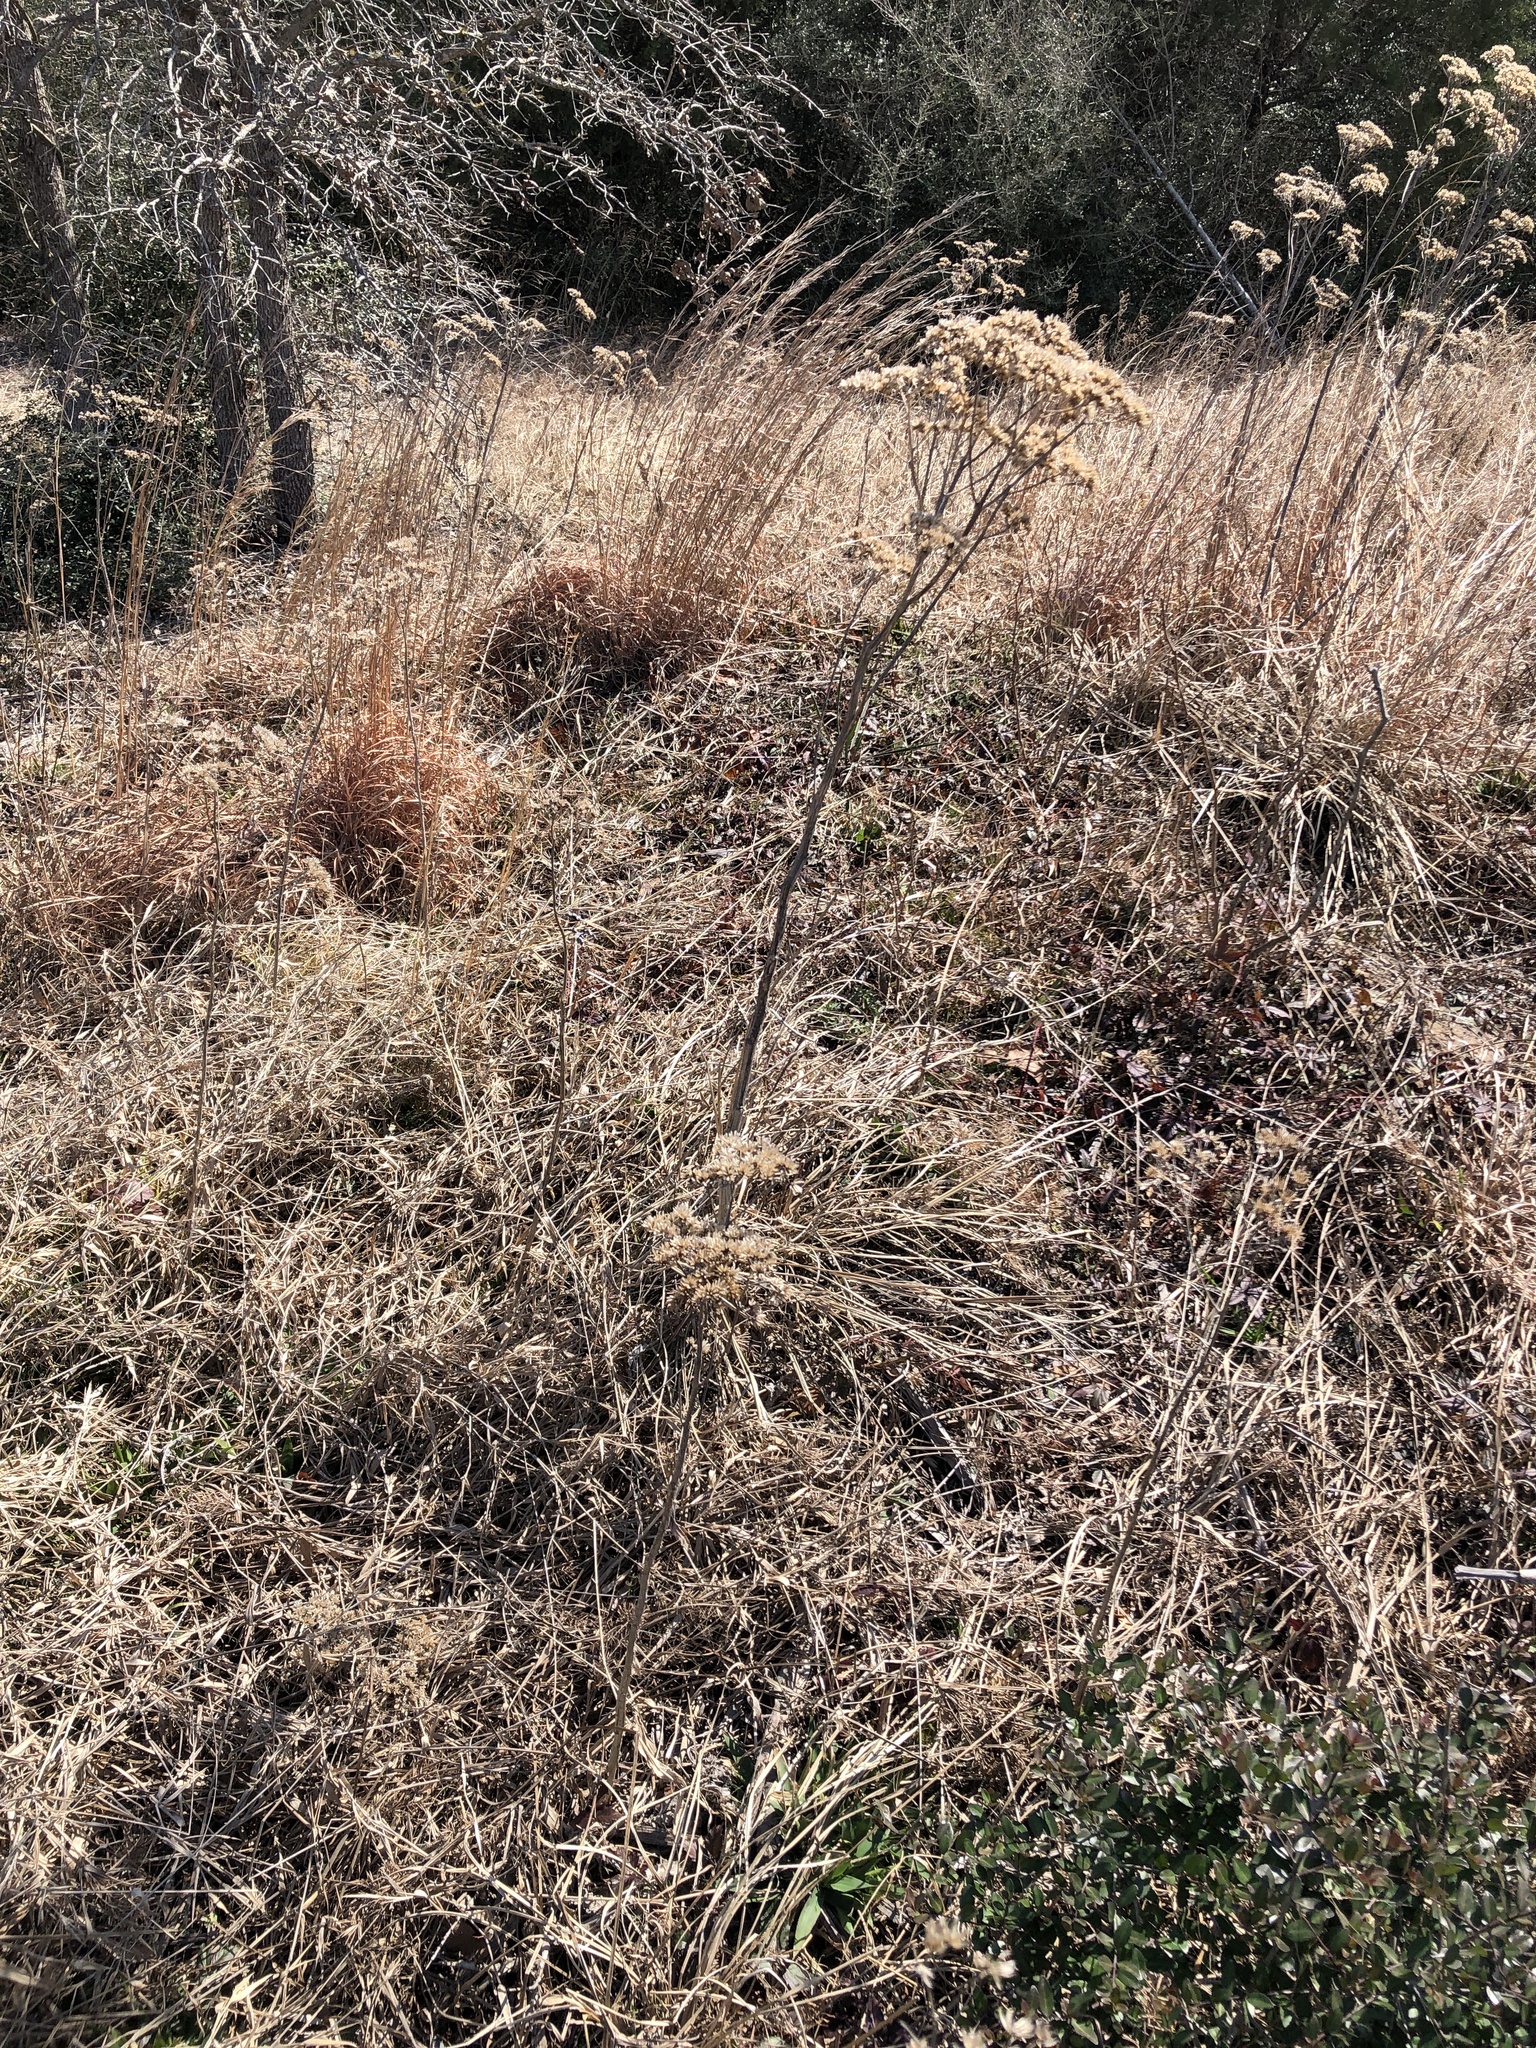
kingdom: Plantae
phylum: Tracheophyta
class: Magnoliopsida
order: Asterales
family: Asteraceae
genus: Verbesina
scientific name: Verbesina virginica
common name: Frostweed
